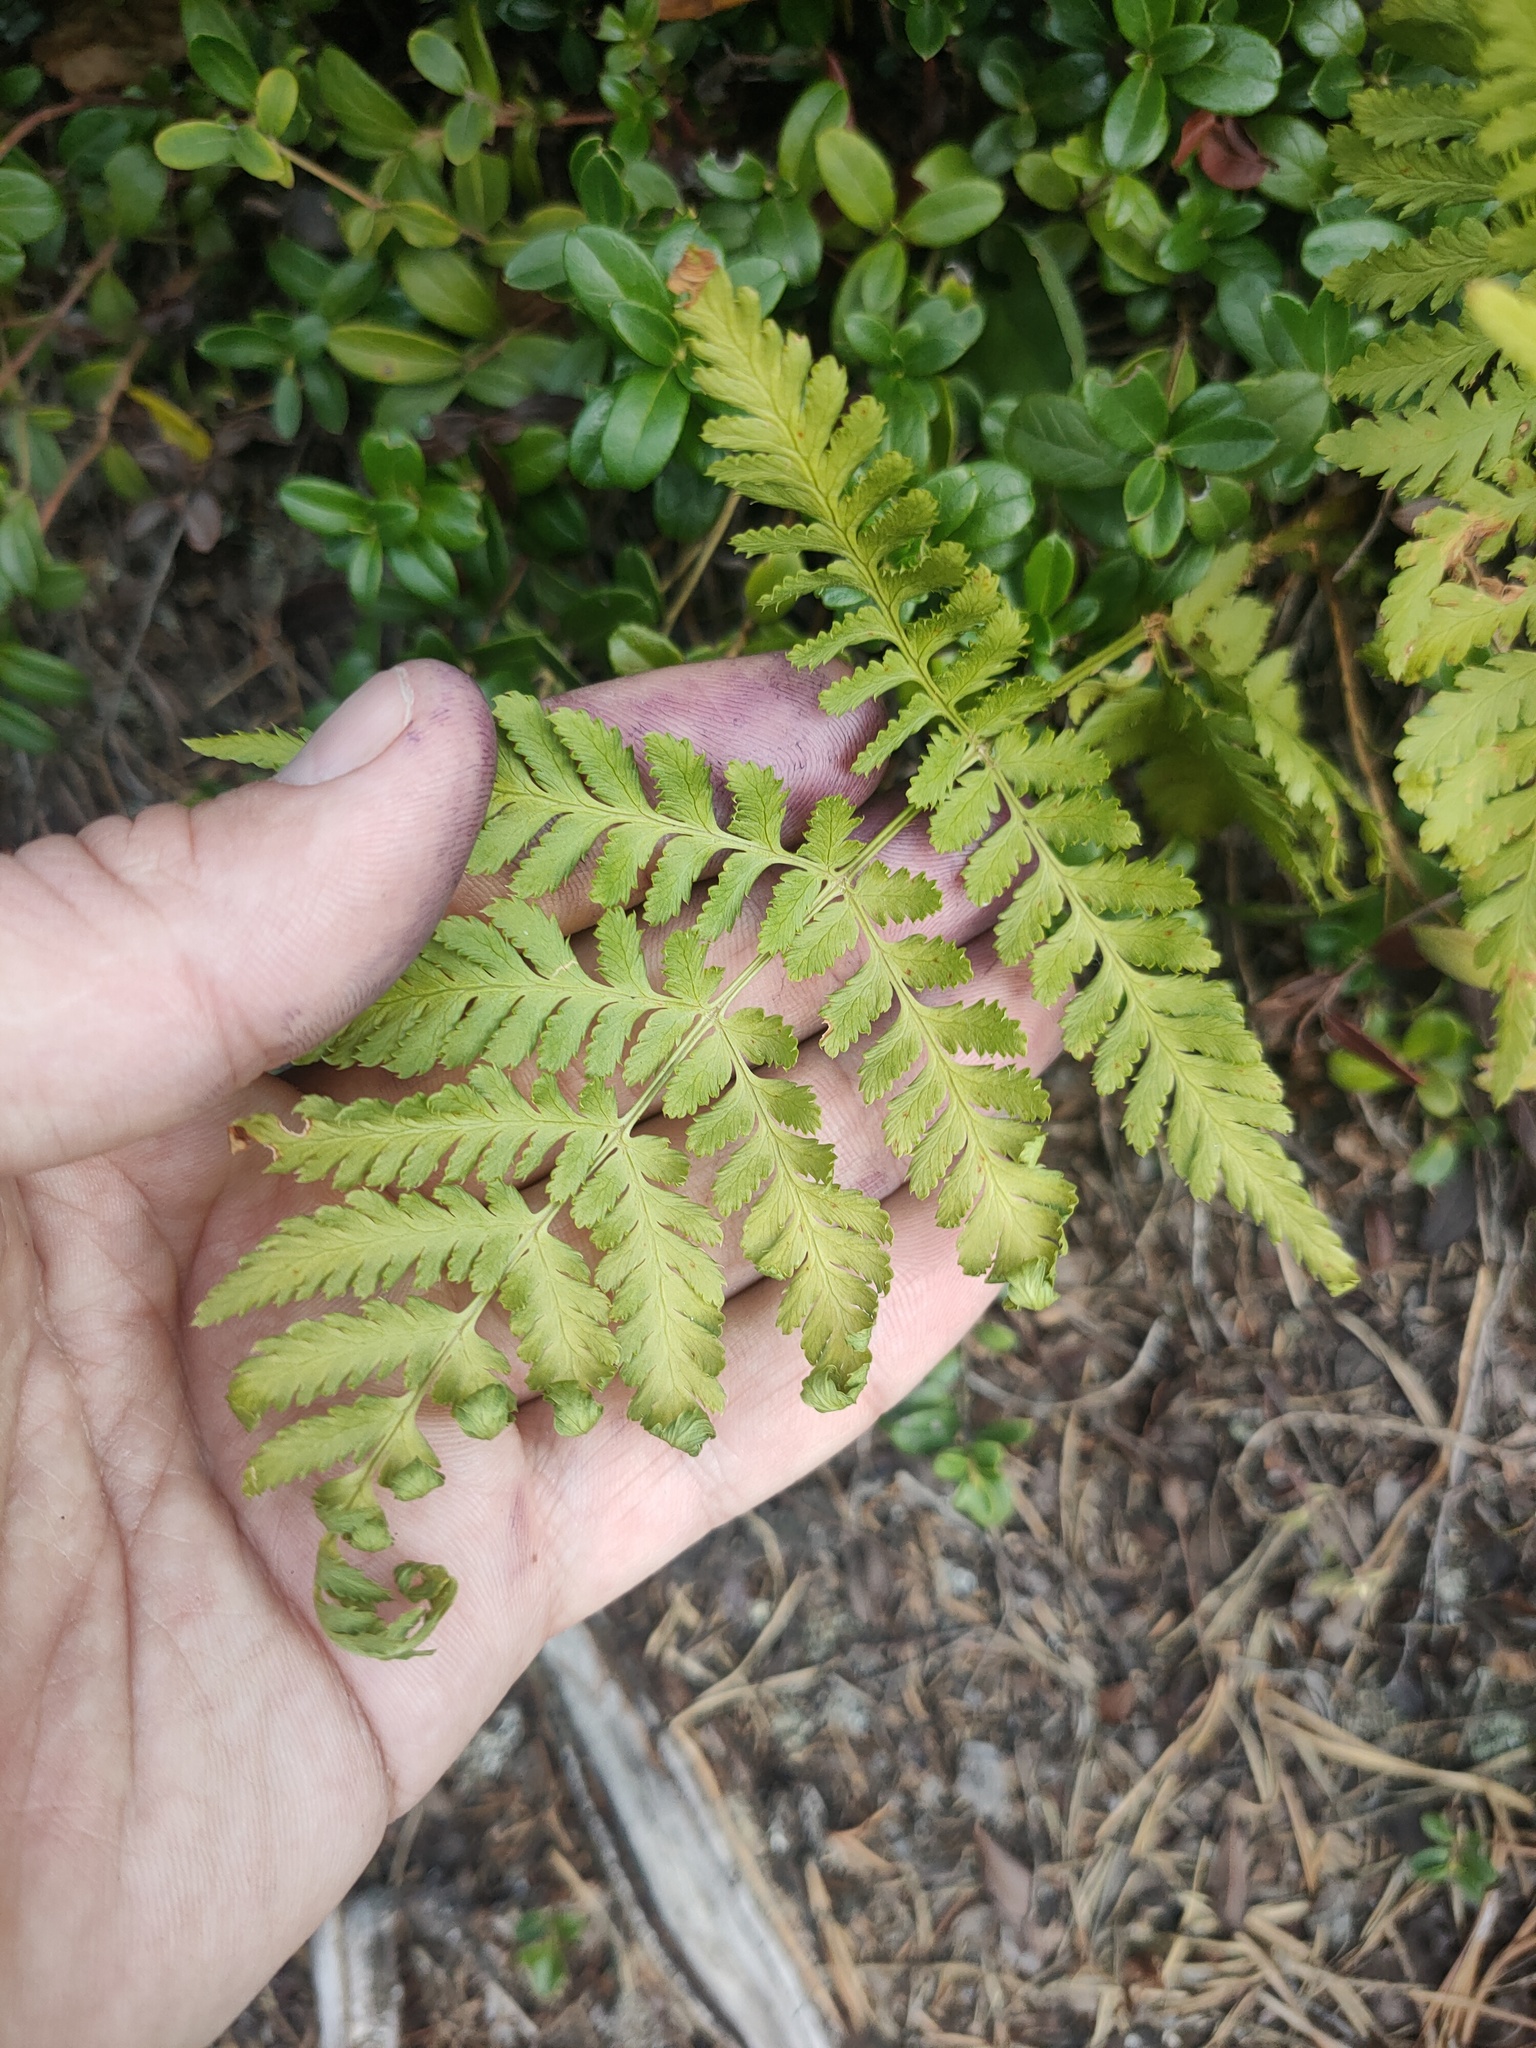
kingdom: Plantae
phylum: Tracheophyta
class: Polypodiopsida
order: Polypodiales
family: Dryopteridaceae
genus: Dryopteris
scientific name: Dryopteris carthusiana
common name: Narrow buckler-fern
